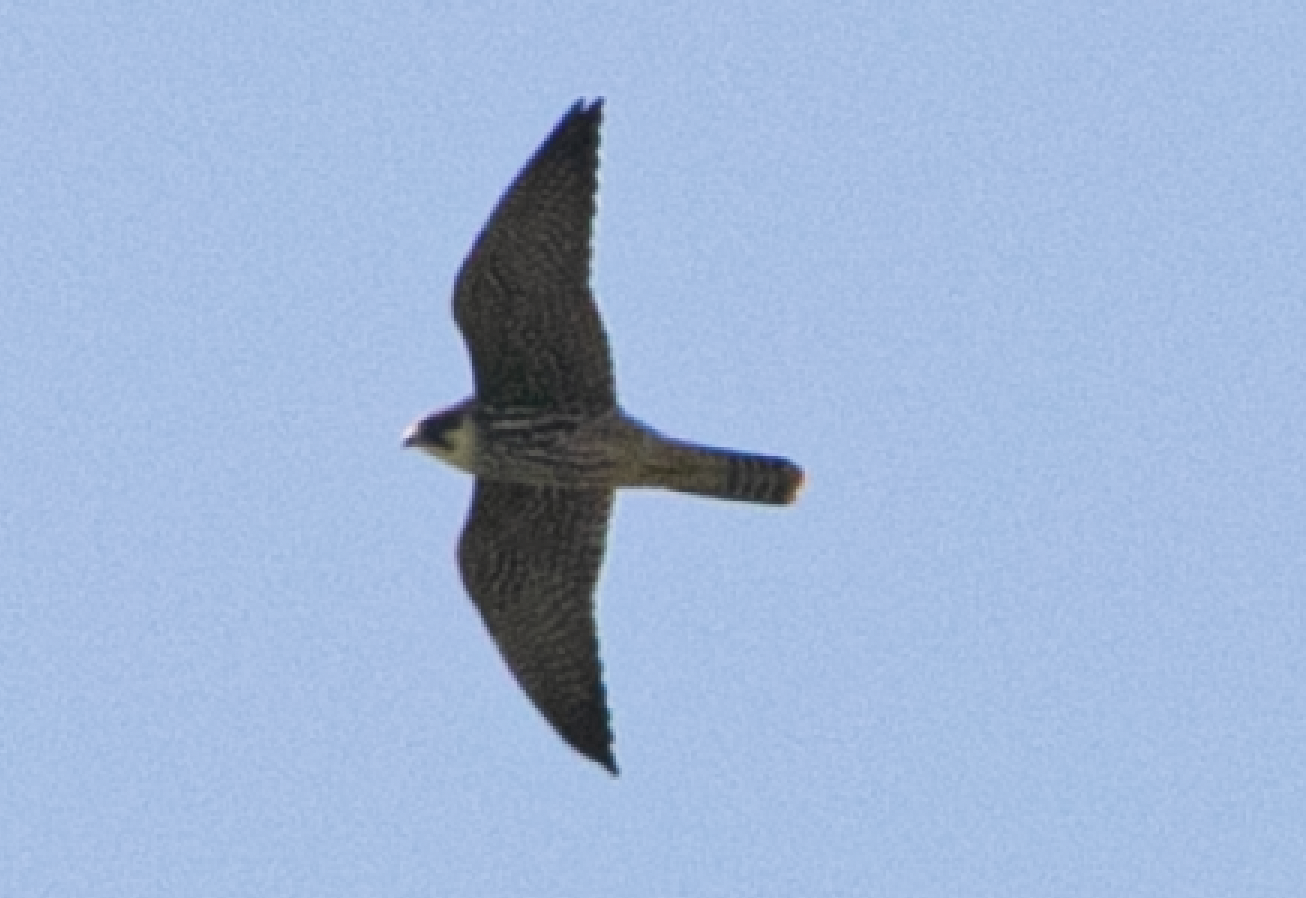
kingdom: Animalia
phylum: Chordata
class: Aves
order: Falconiformes
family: Falconidae
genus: Falco
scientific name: Falco subbuteo
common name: Eurasian hobby
